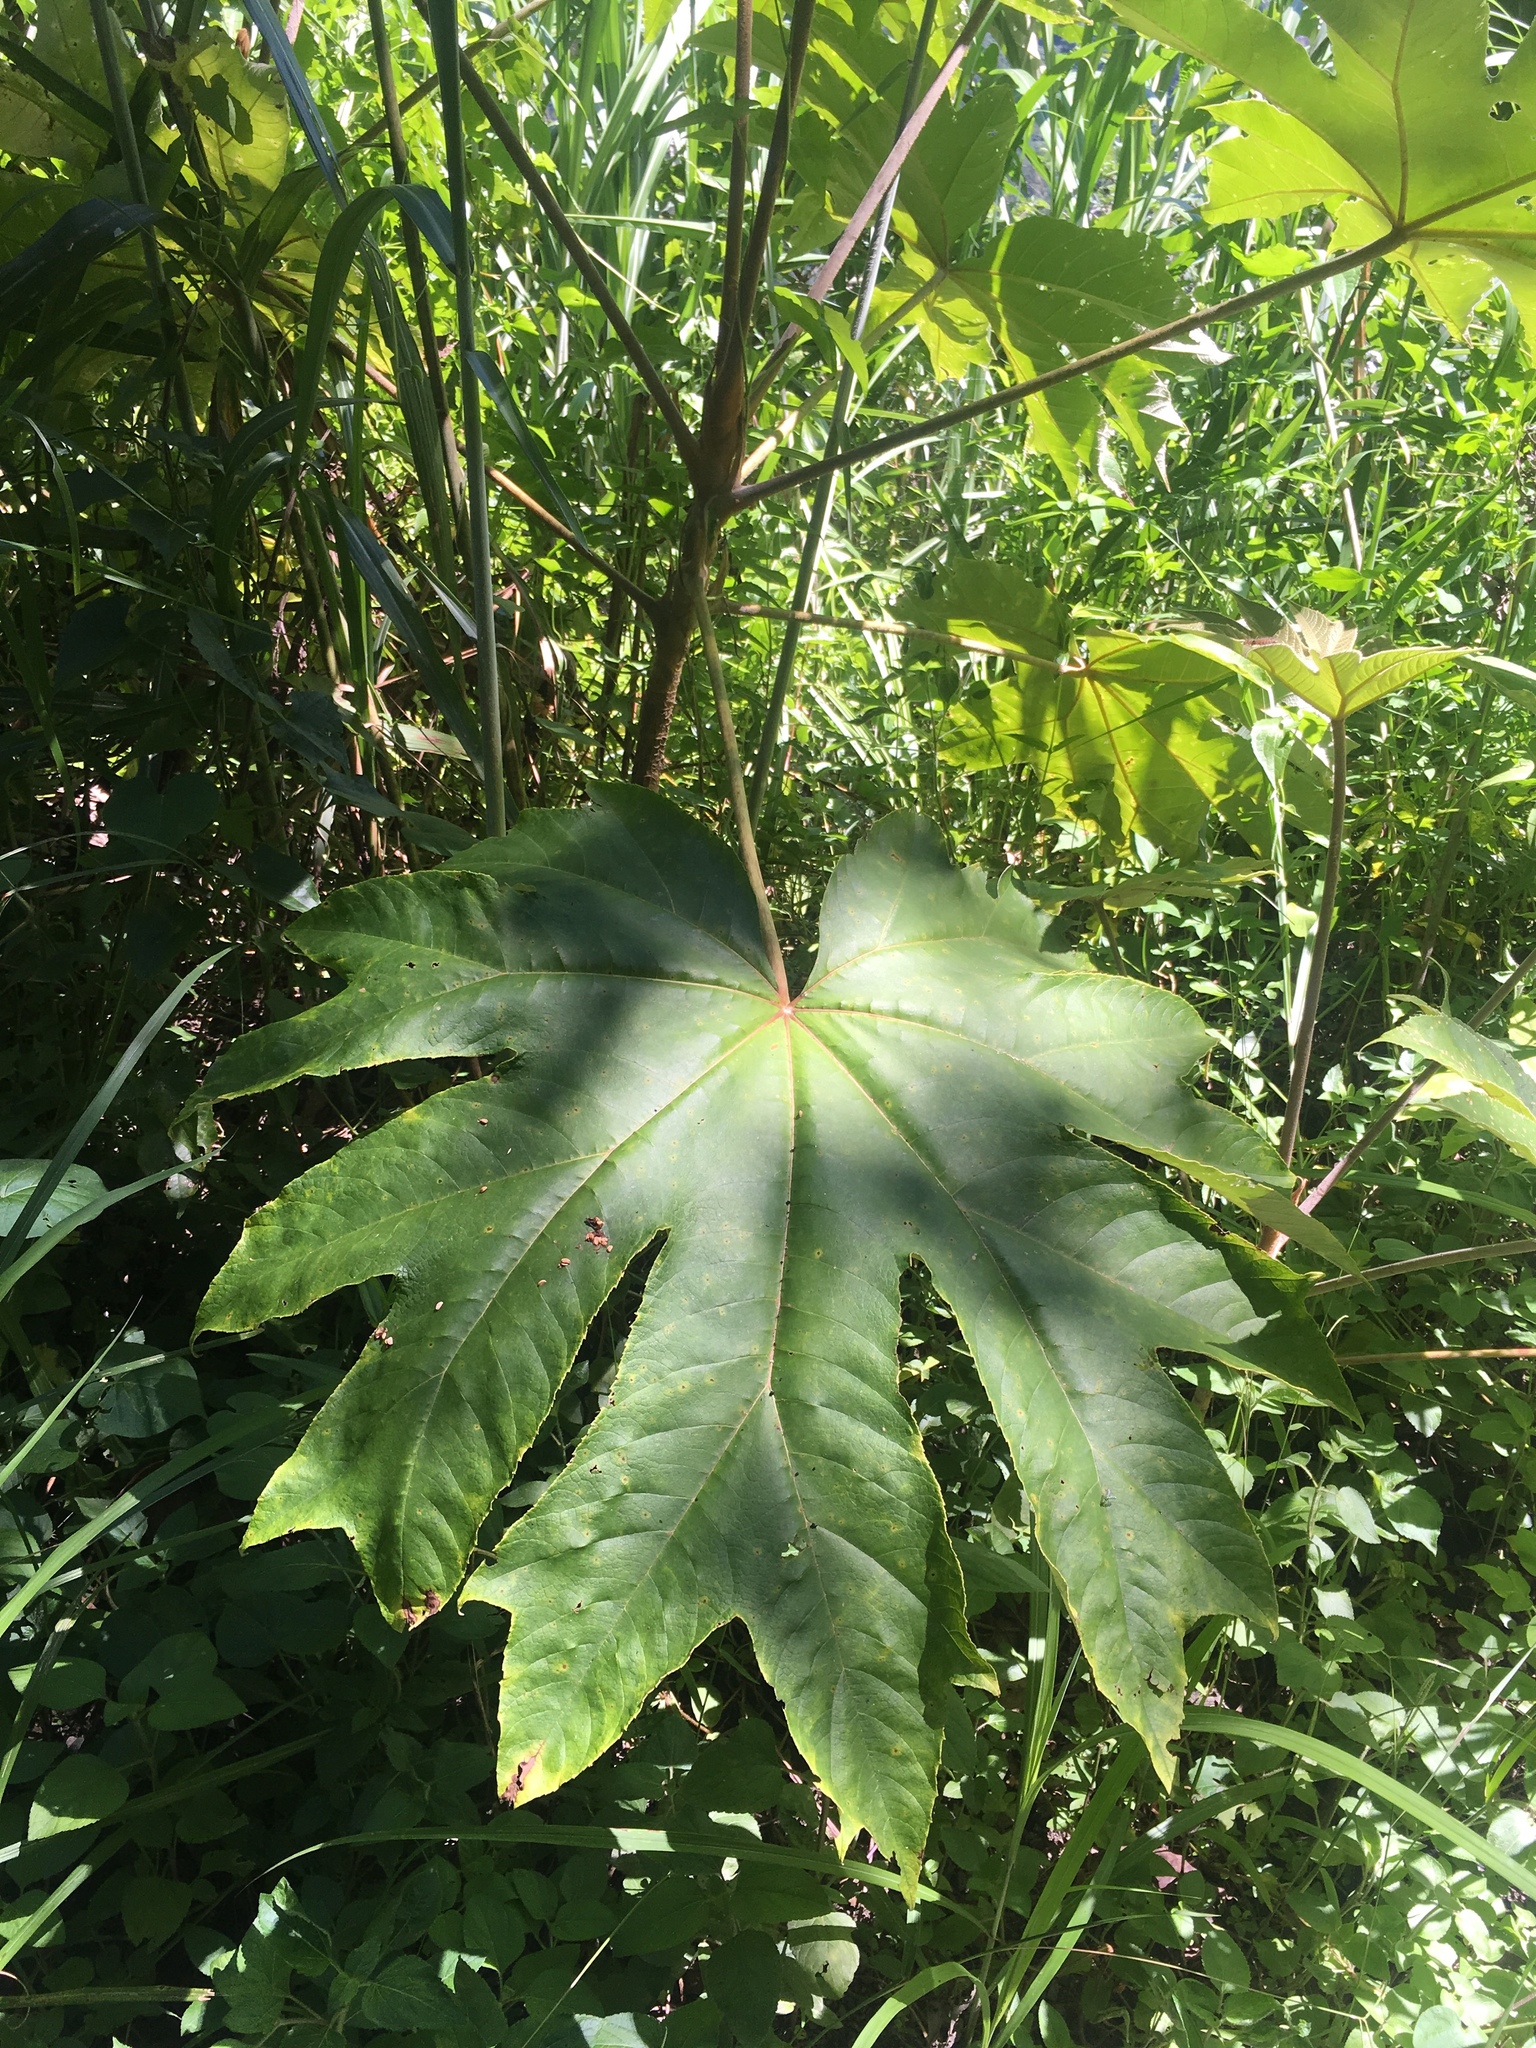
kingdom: Plantae
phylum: Tracheophyta
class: Magnoliopsida
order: Apiales
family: Araliaceae
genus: Tetrapanax
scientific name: Tetrapanax papyrifer
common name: Rice-paper plant
